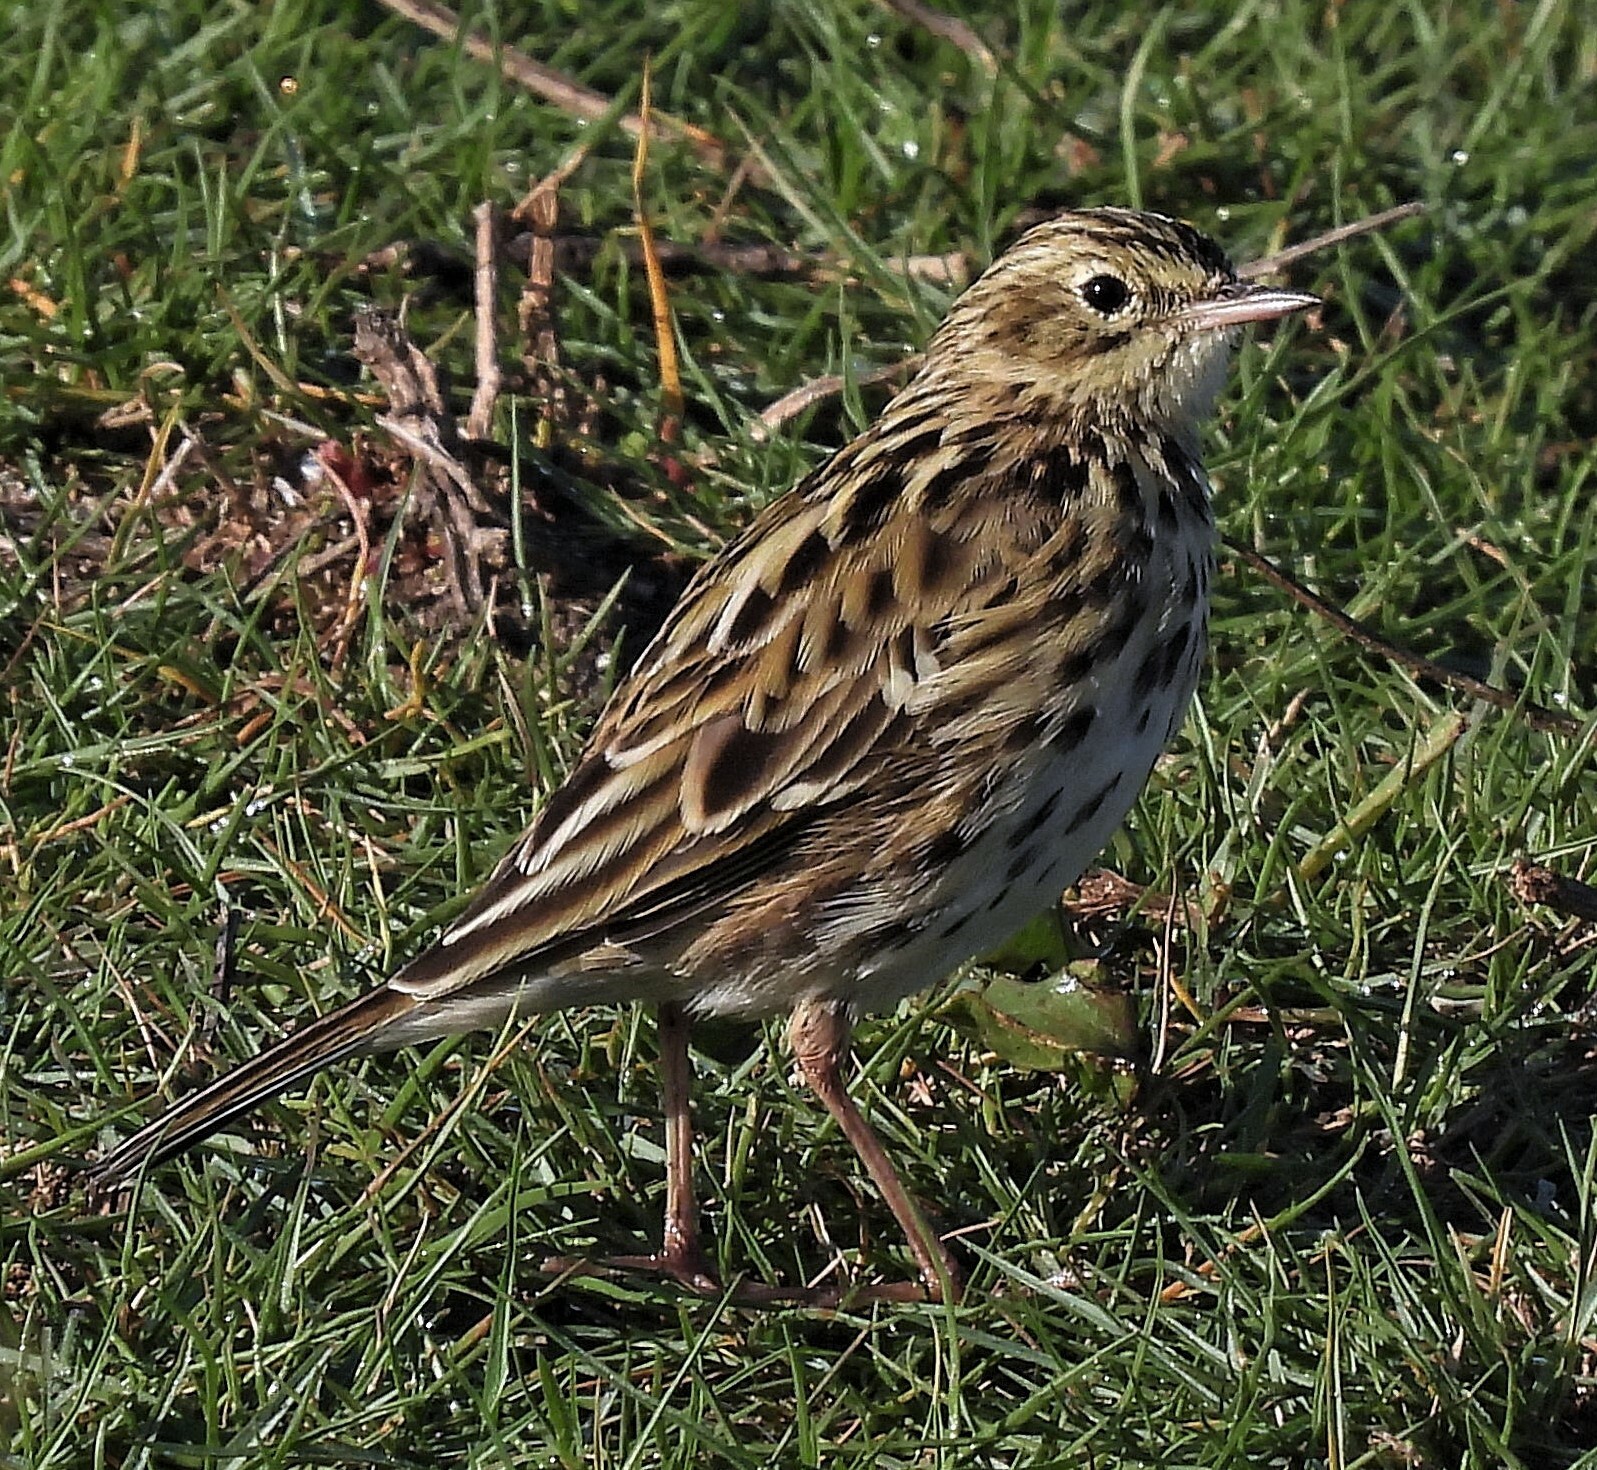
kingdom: Animalia
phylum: Chordata
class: Aves
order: Passeriformes
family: Motacillidae
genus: Anthus
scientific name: Anthus correndera
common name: Correndera pipit
